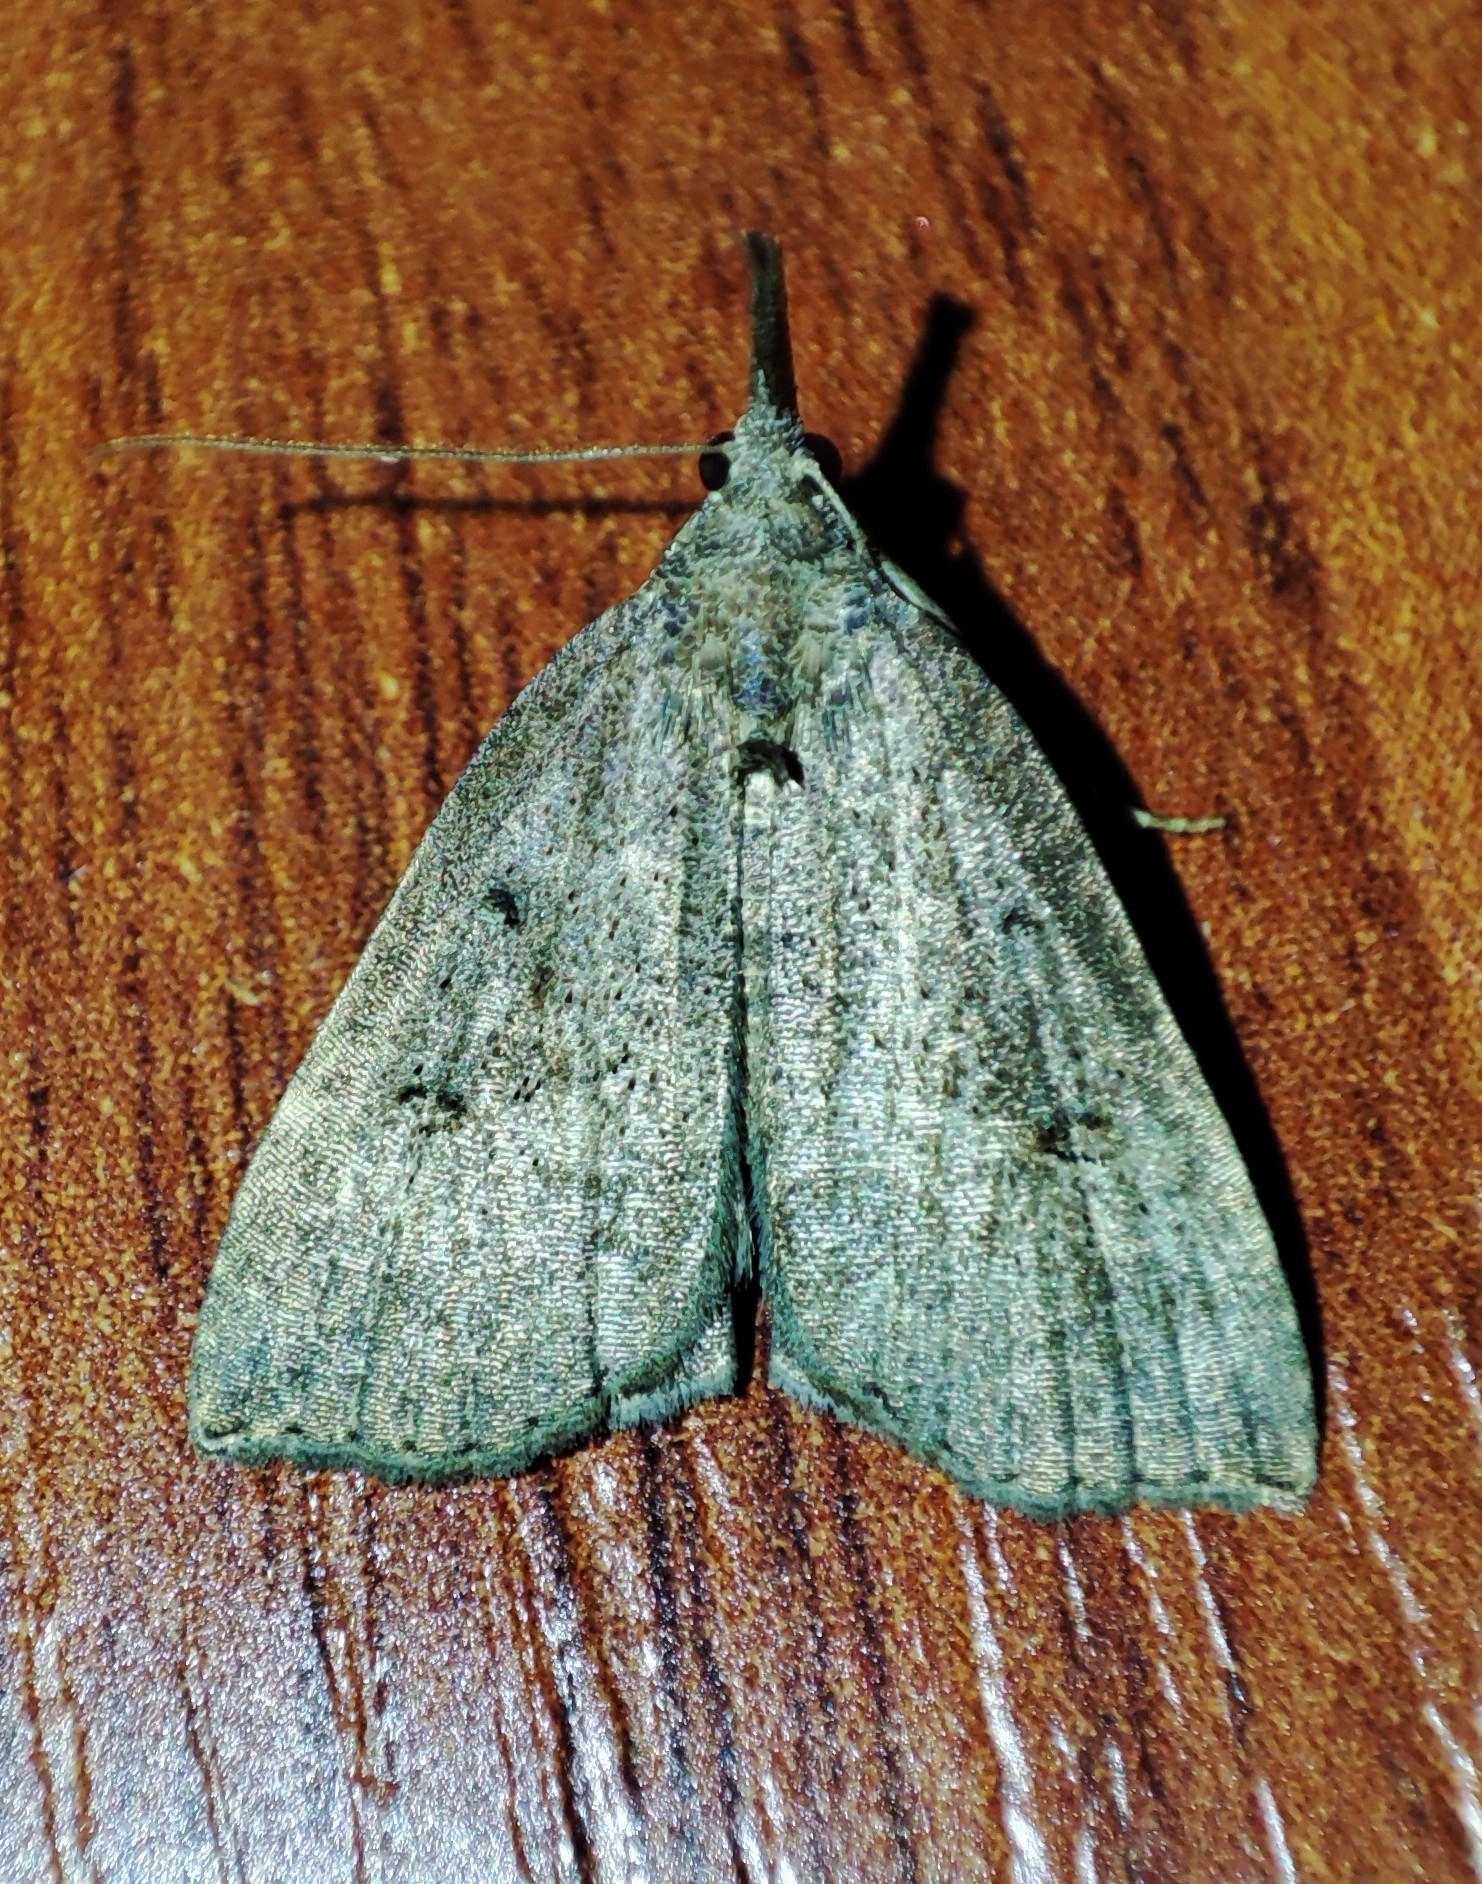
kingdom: Animalia
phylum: Arthropoda
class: Insecta
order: Lepidoptera
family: Erebidae
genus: Hypena
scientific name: Hypena rostralis
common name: Buttoned snout
